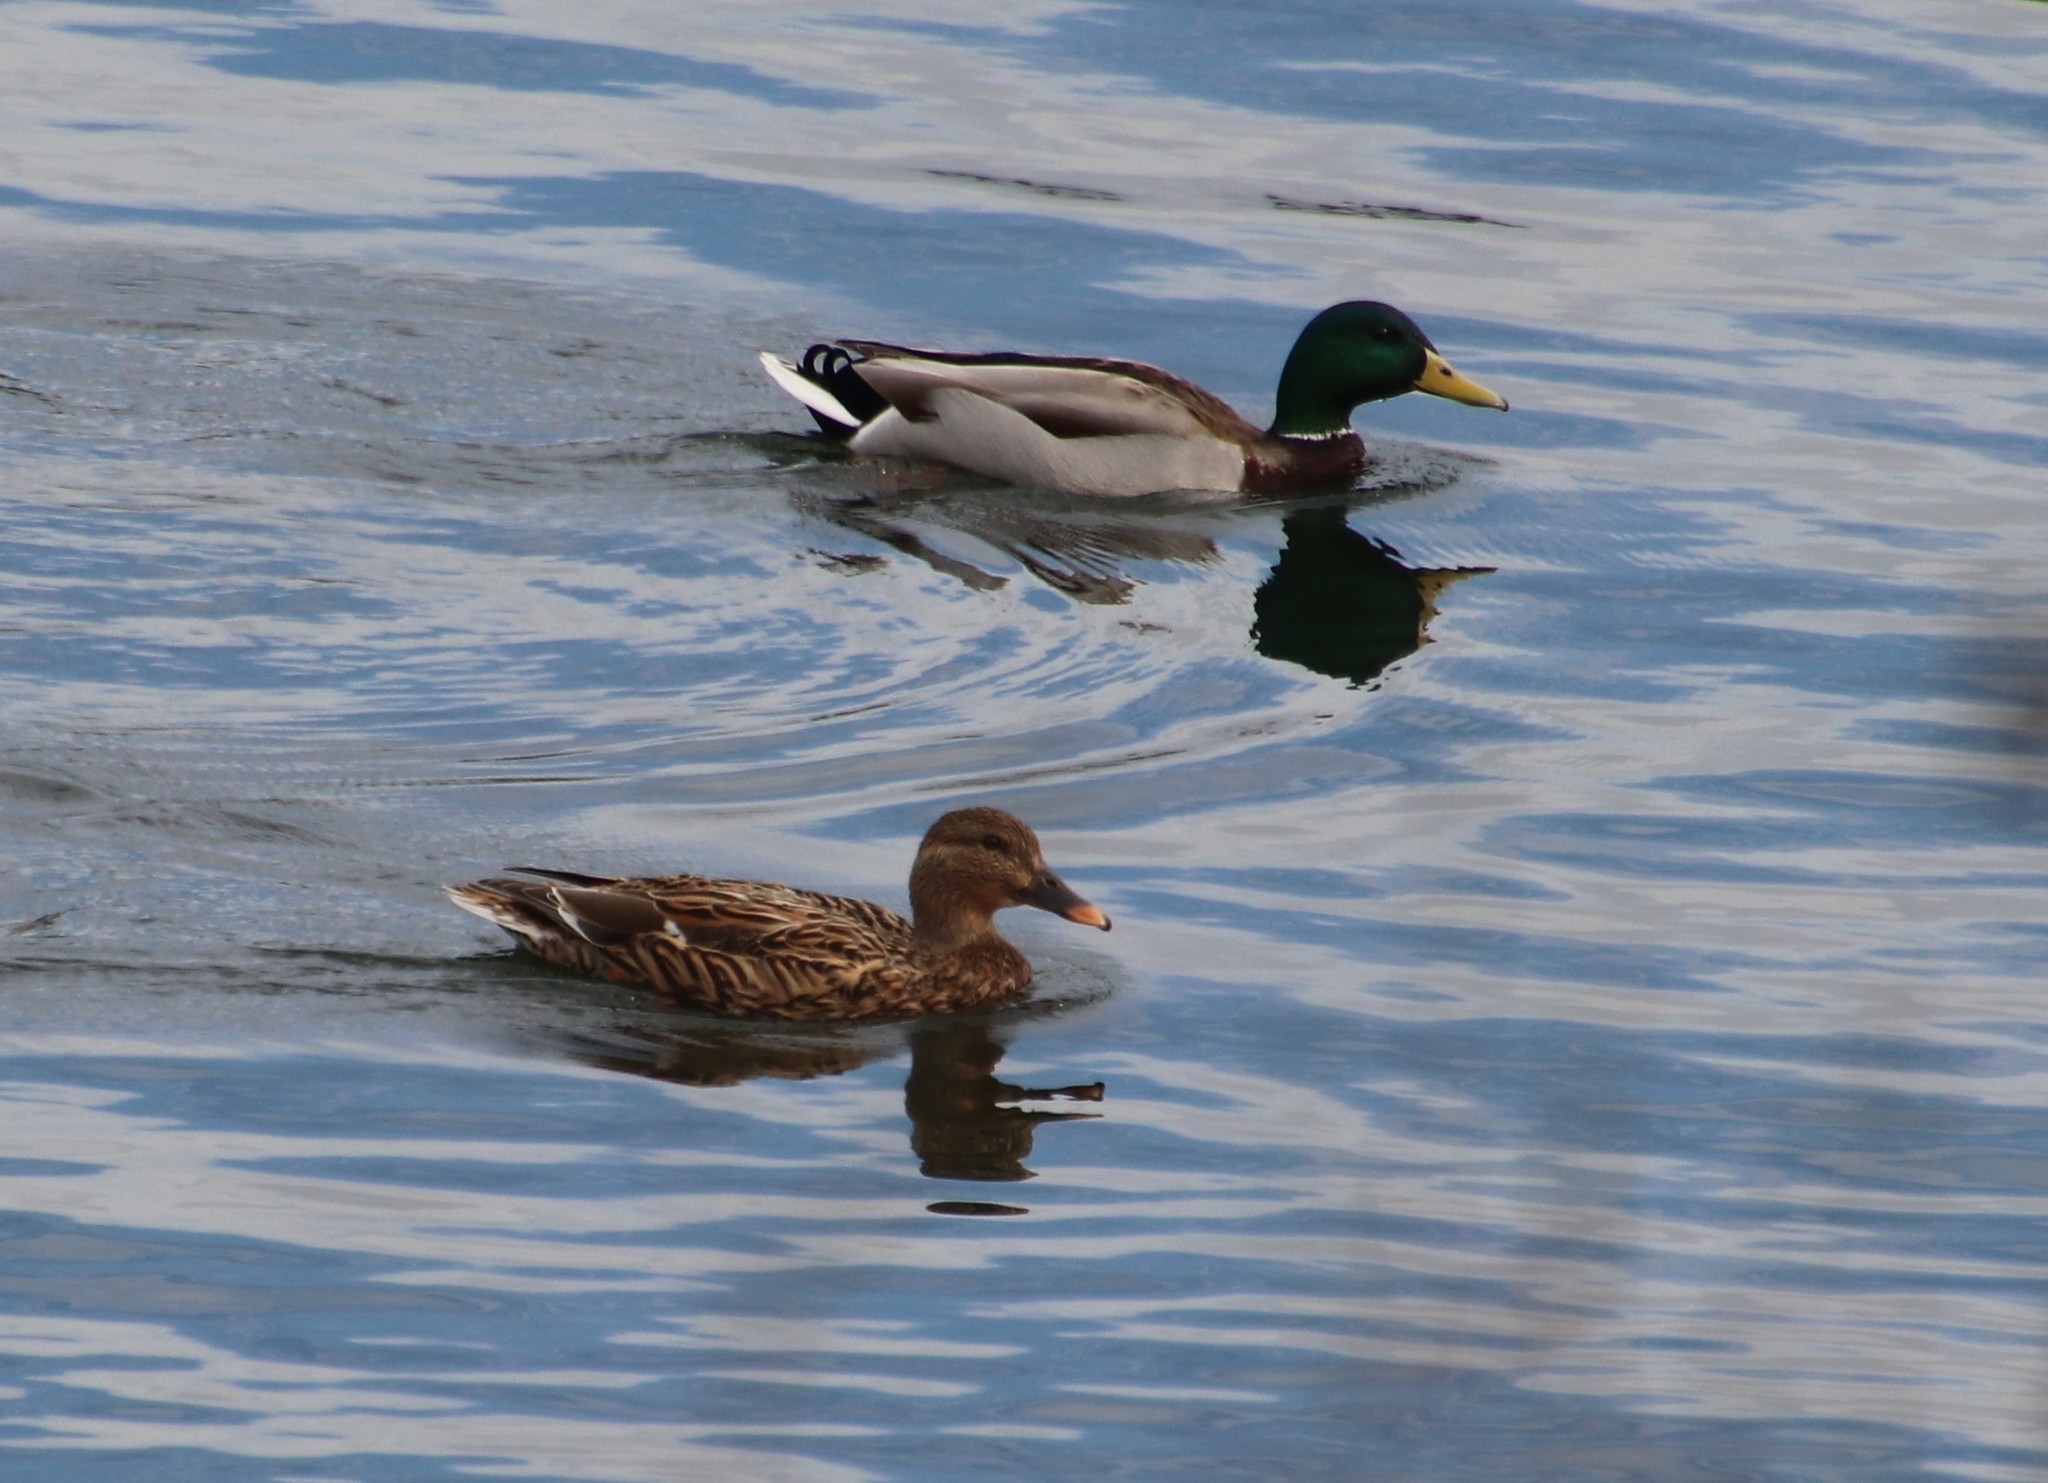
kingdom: Animalia
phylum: Chordata
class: Aves
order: Anseriformes
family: Anatidae
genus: Anas
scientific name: Anas platyrhynchos
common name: Mallard
